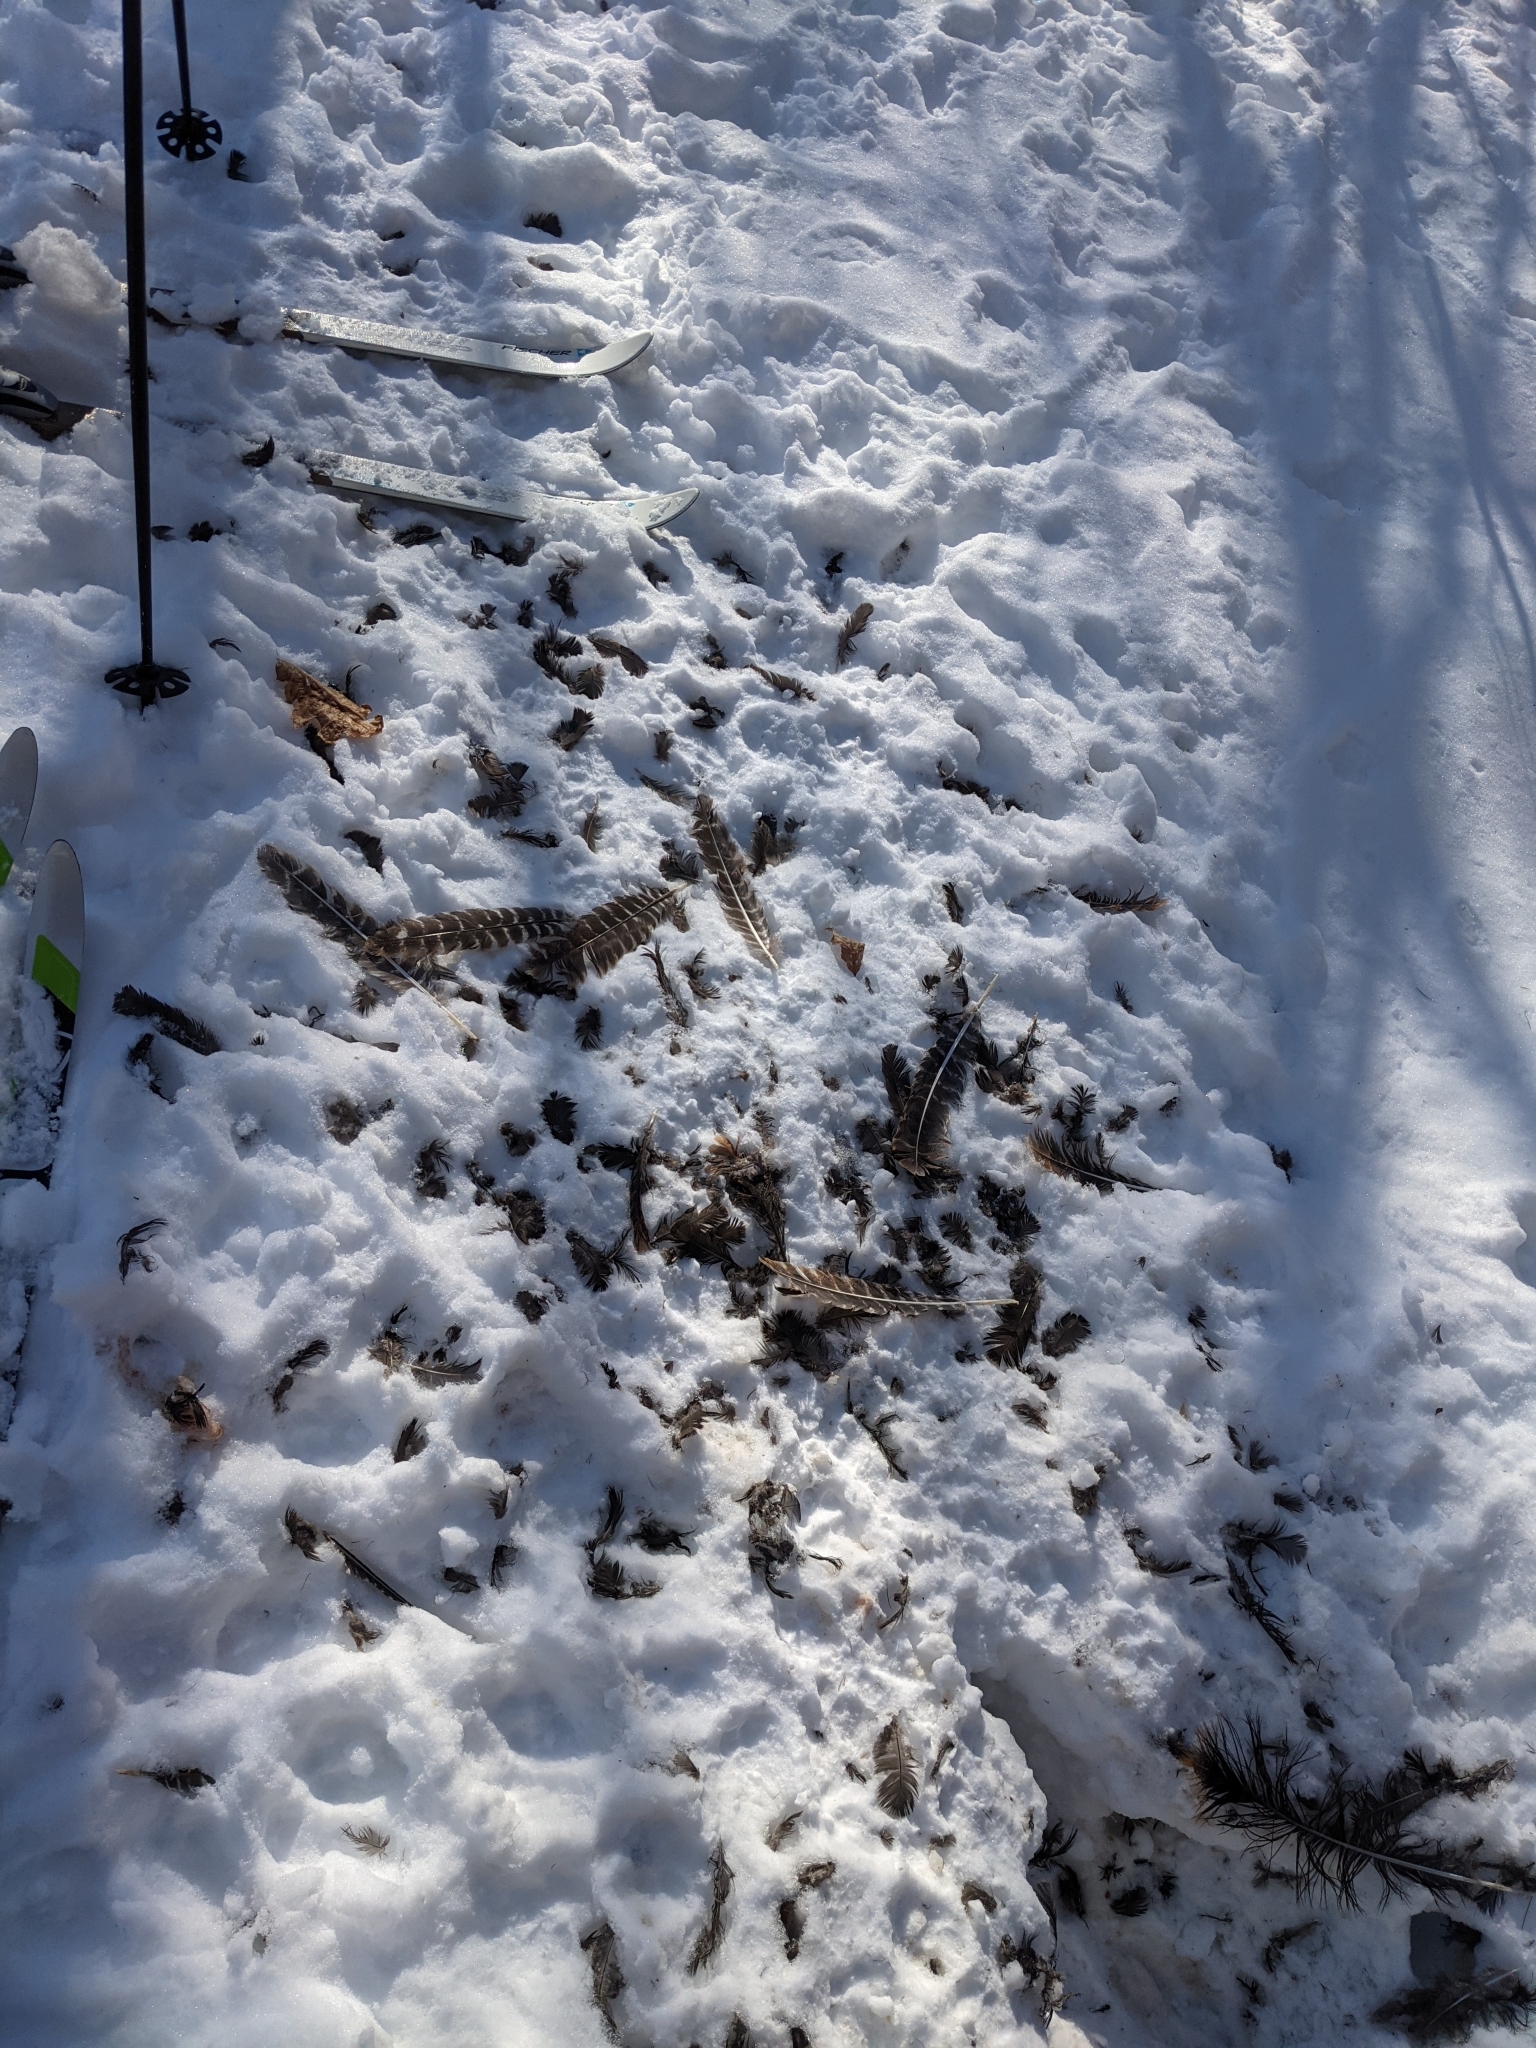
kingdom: Animalia
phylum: Chordata
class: Aves
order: Galliformes
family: Phasianidae
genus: Meleagris
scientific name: Meleagris gallopavo
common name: Wild turkey
